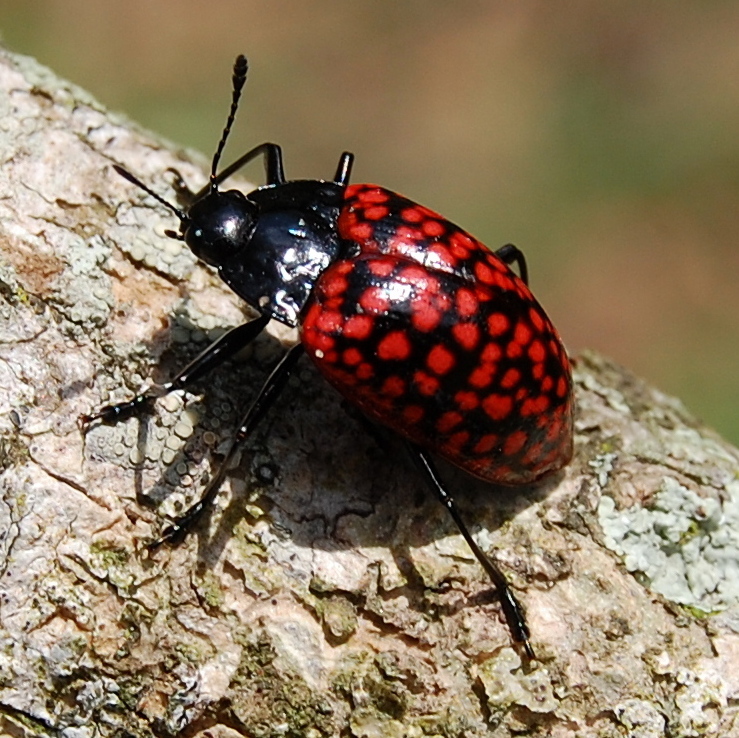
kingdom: Animalia
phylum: Arthropoda
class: Insecta
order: Coleoptera
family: Erotylidae
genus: Erotylina
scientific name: Erotylina jaspidea
